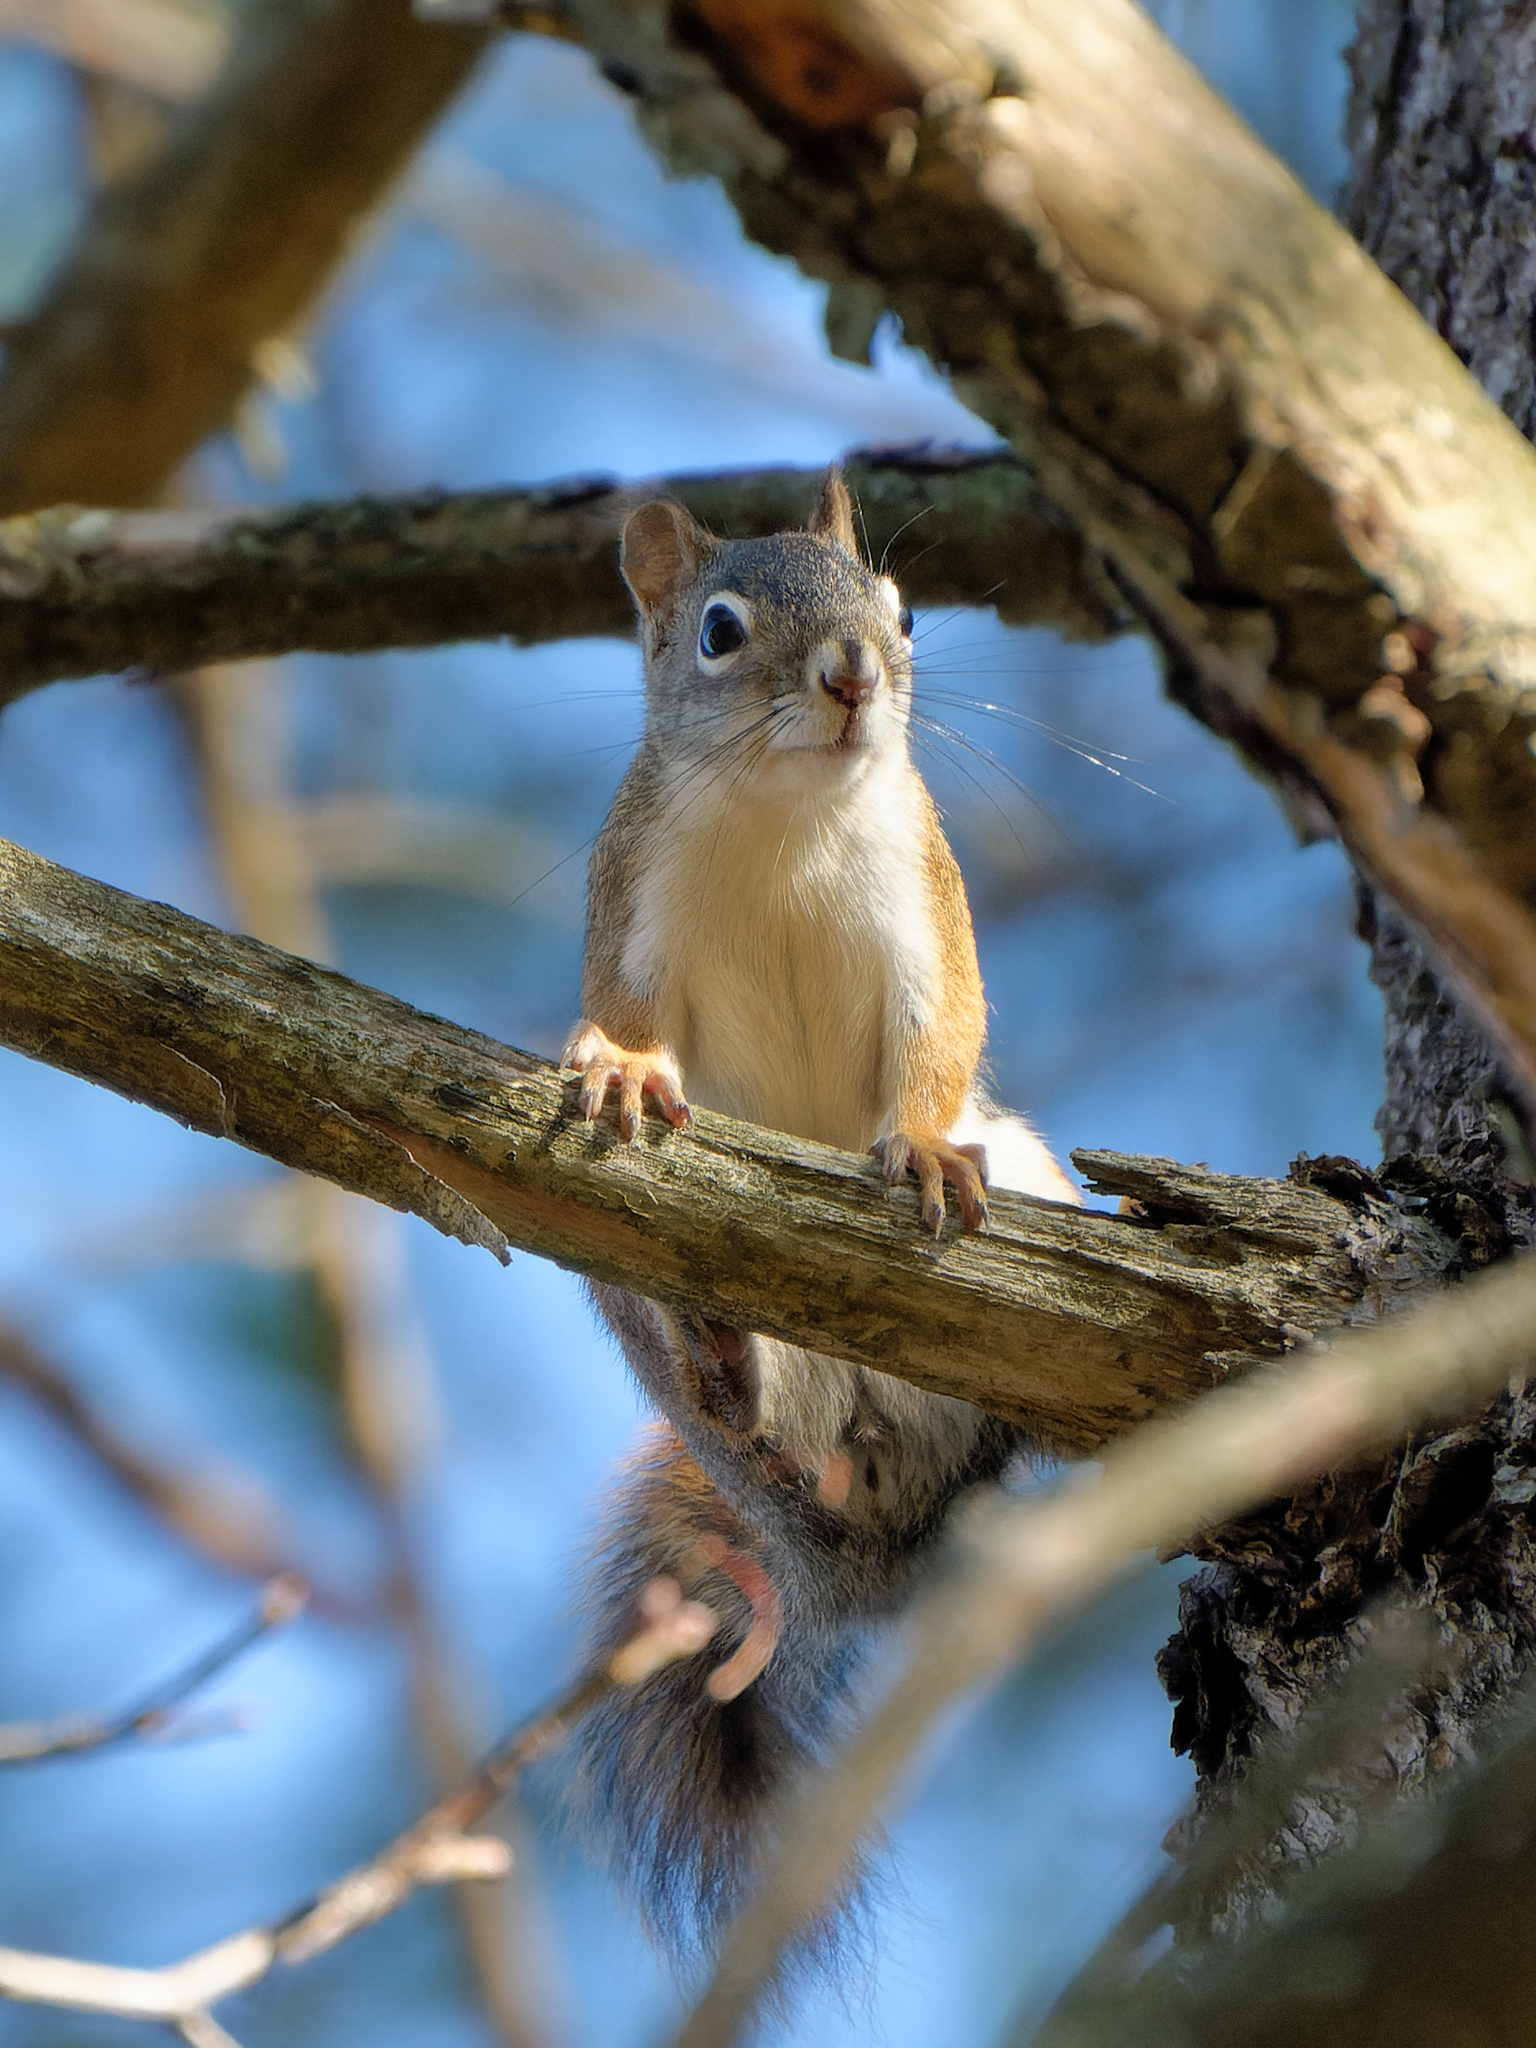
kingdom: Animalia
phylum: Chordata
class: Mammalia
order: Rodentia
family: Sciuridae
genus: Tamiasciurus
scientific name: Tamiasciurus hudsonicus
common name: Red squirrel
